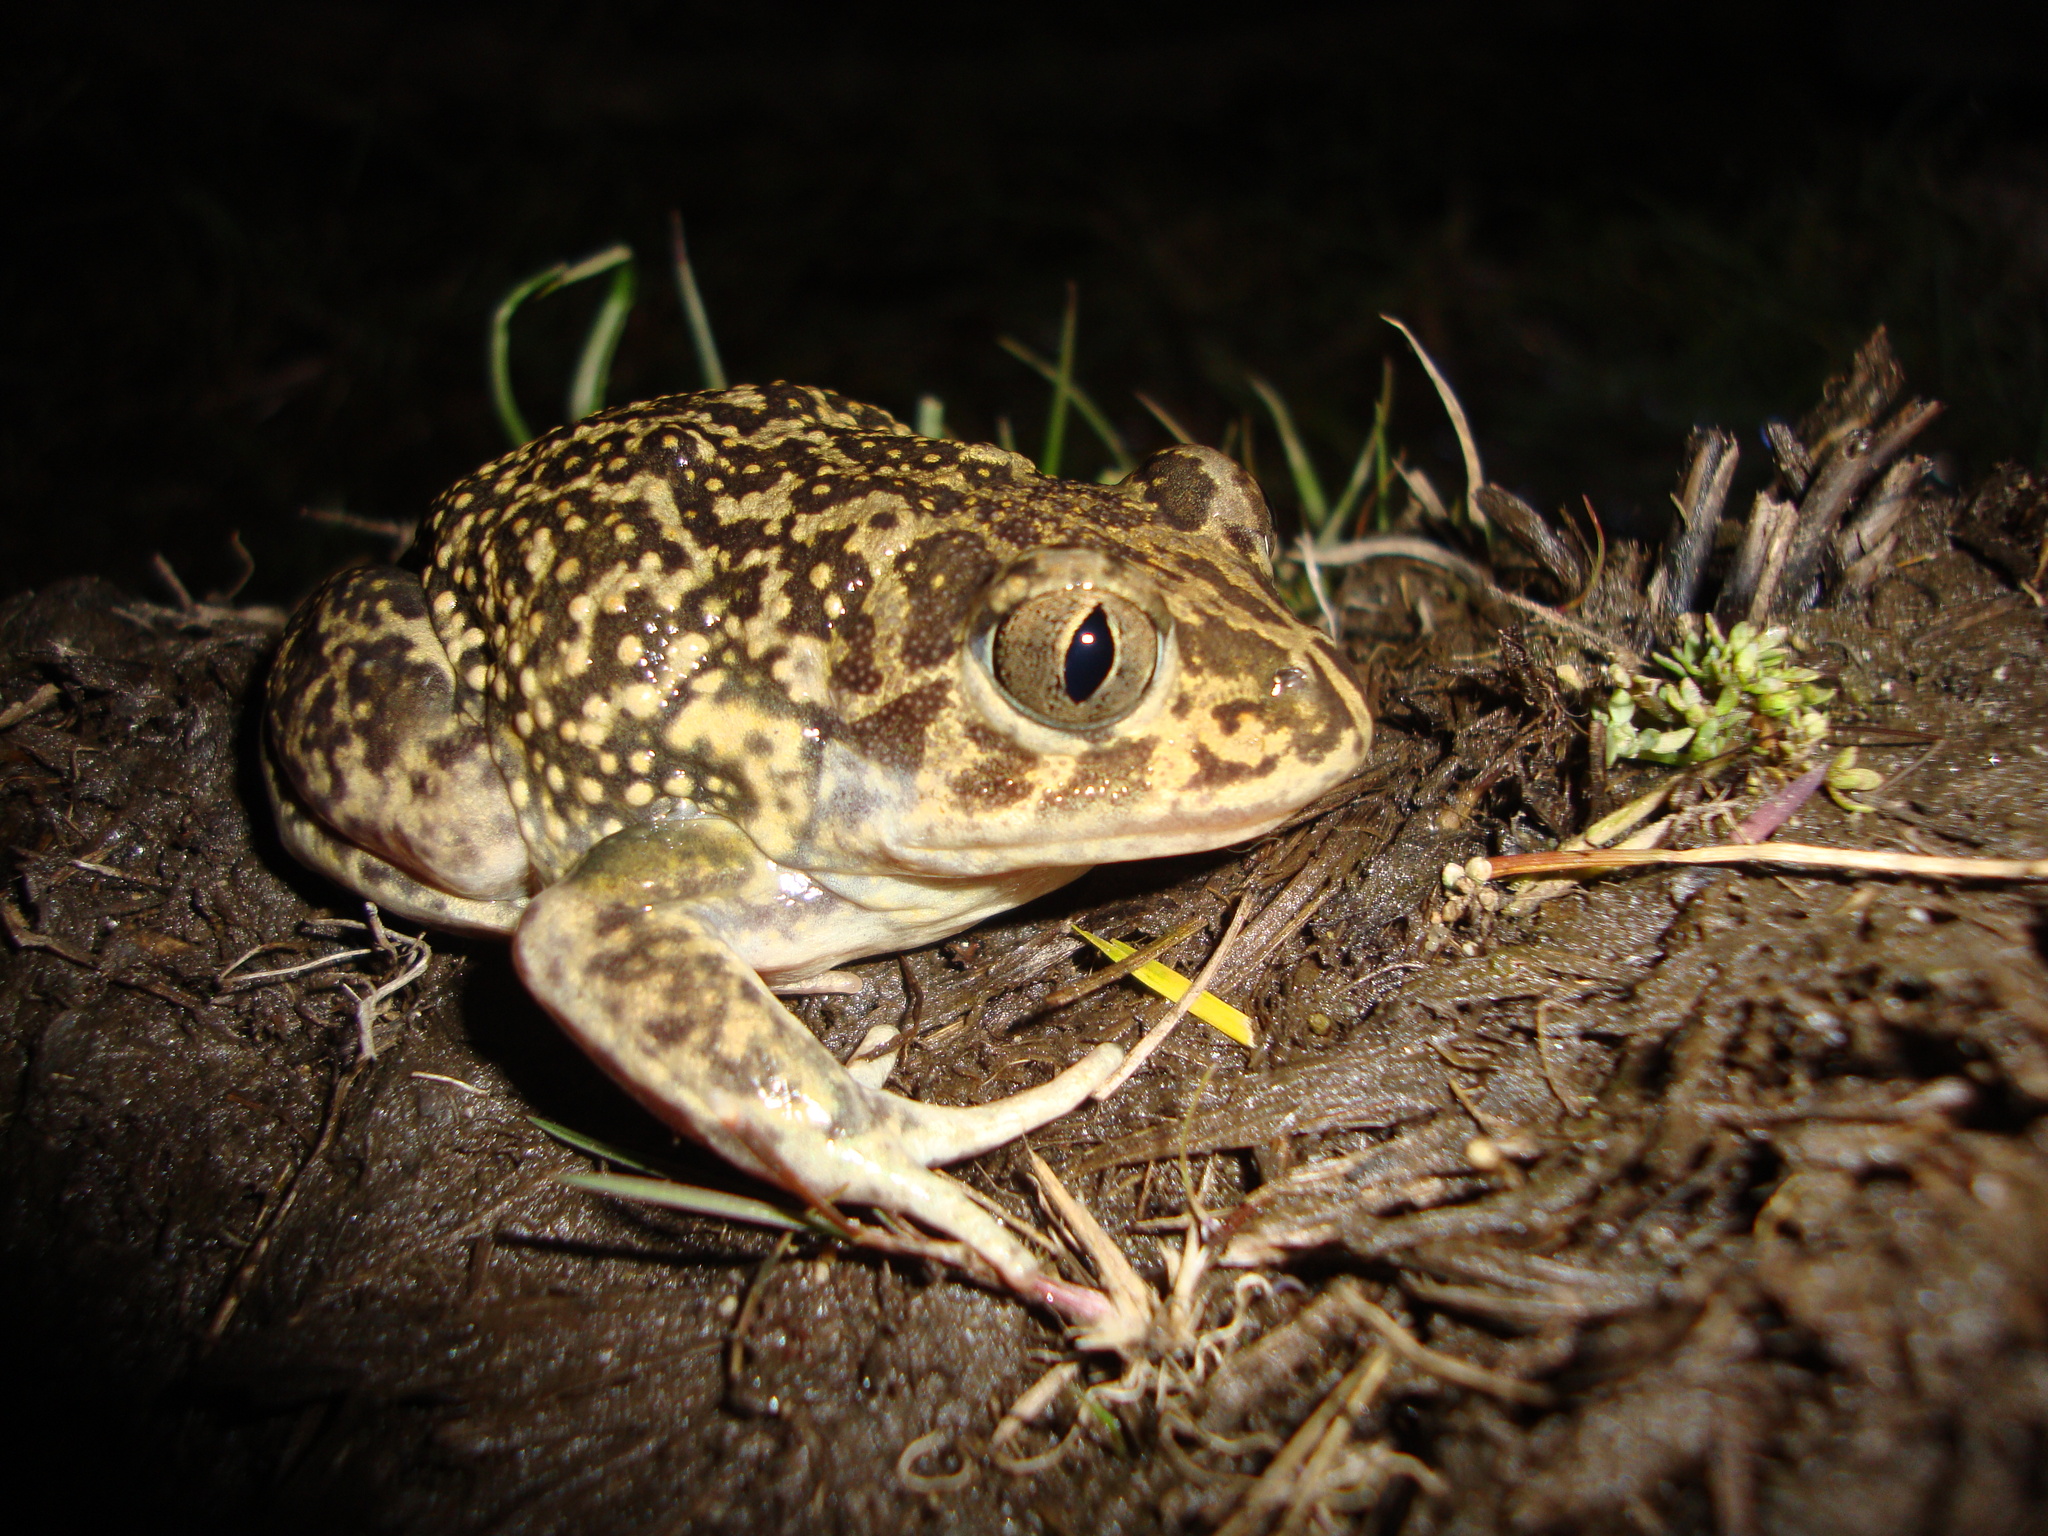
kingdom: Animalia
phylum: Chordata
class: Amphibia
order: Anura
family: Pelobatidae
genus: Pelobates
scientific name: Pelobates cultripes
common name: Western spadefoot
